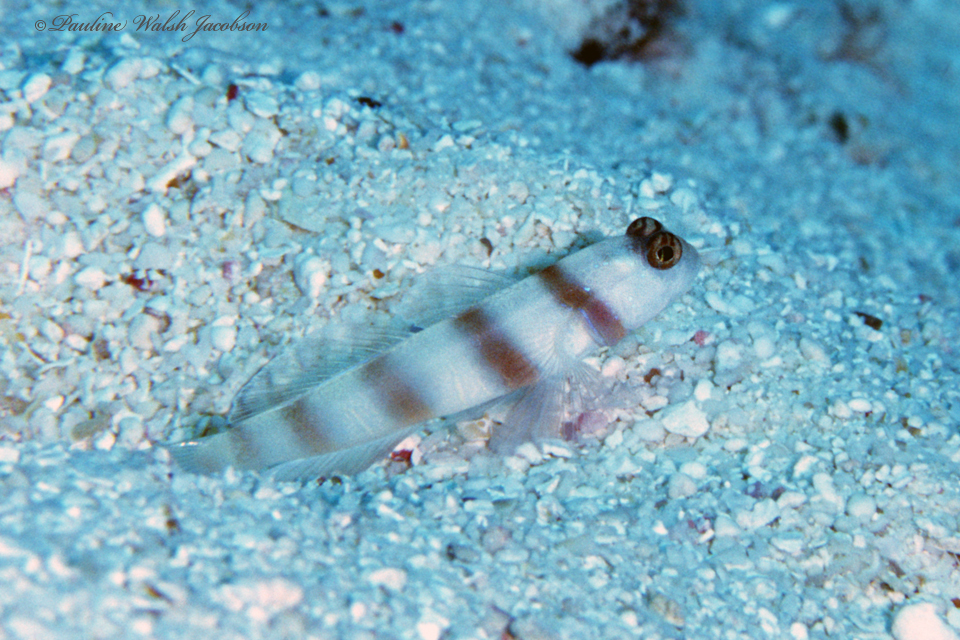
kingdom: Animalia
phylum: Chordata
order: Perciformes
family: Gobiidae
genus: Amblyeleotris
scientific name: Amblyeleotris steinitzi
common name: Steinitz' prawn-goby
